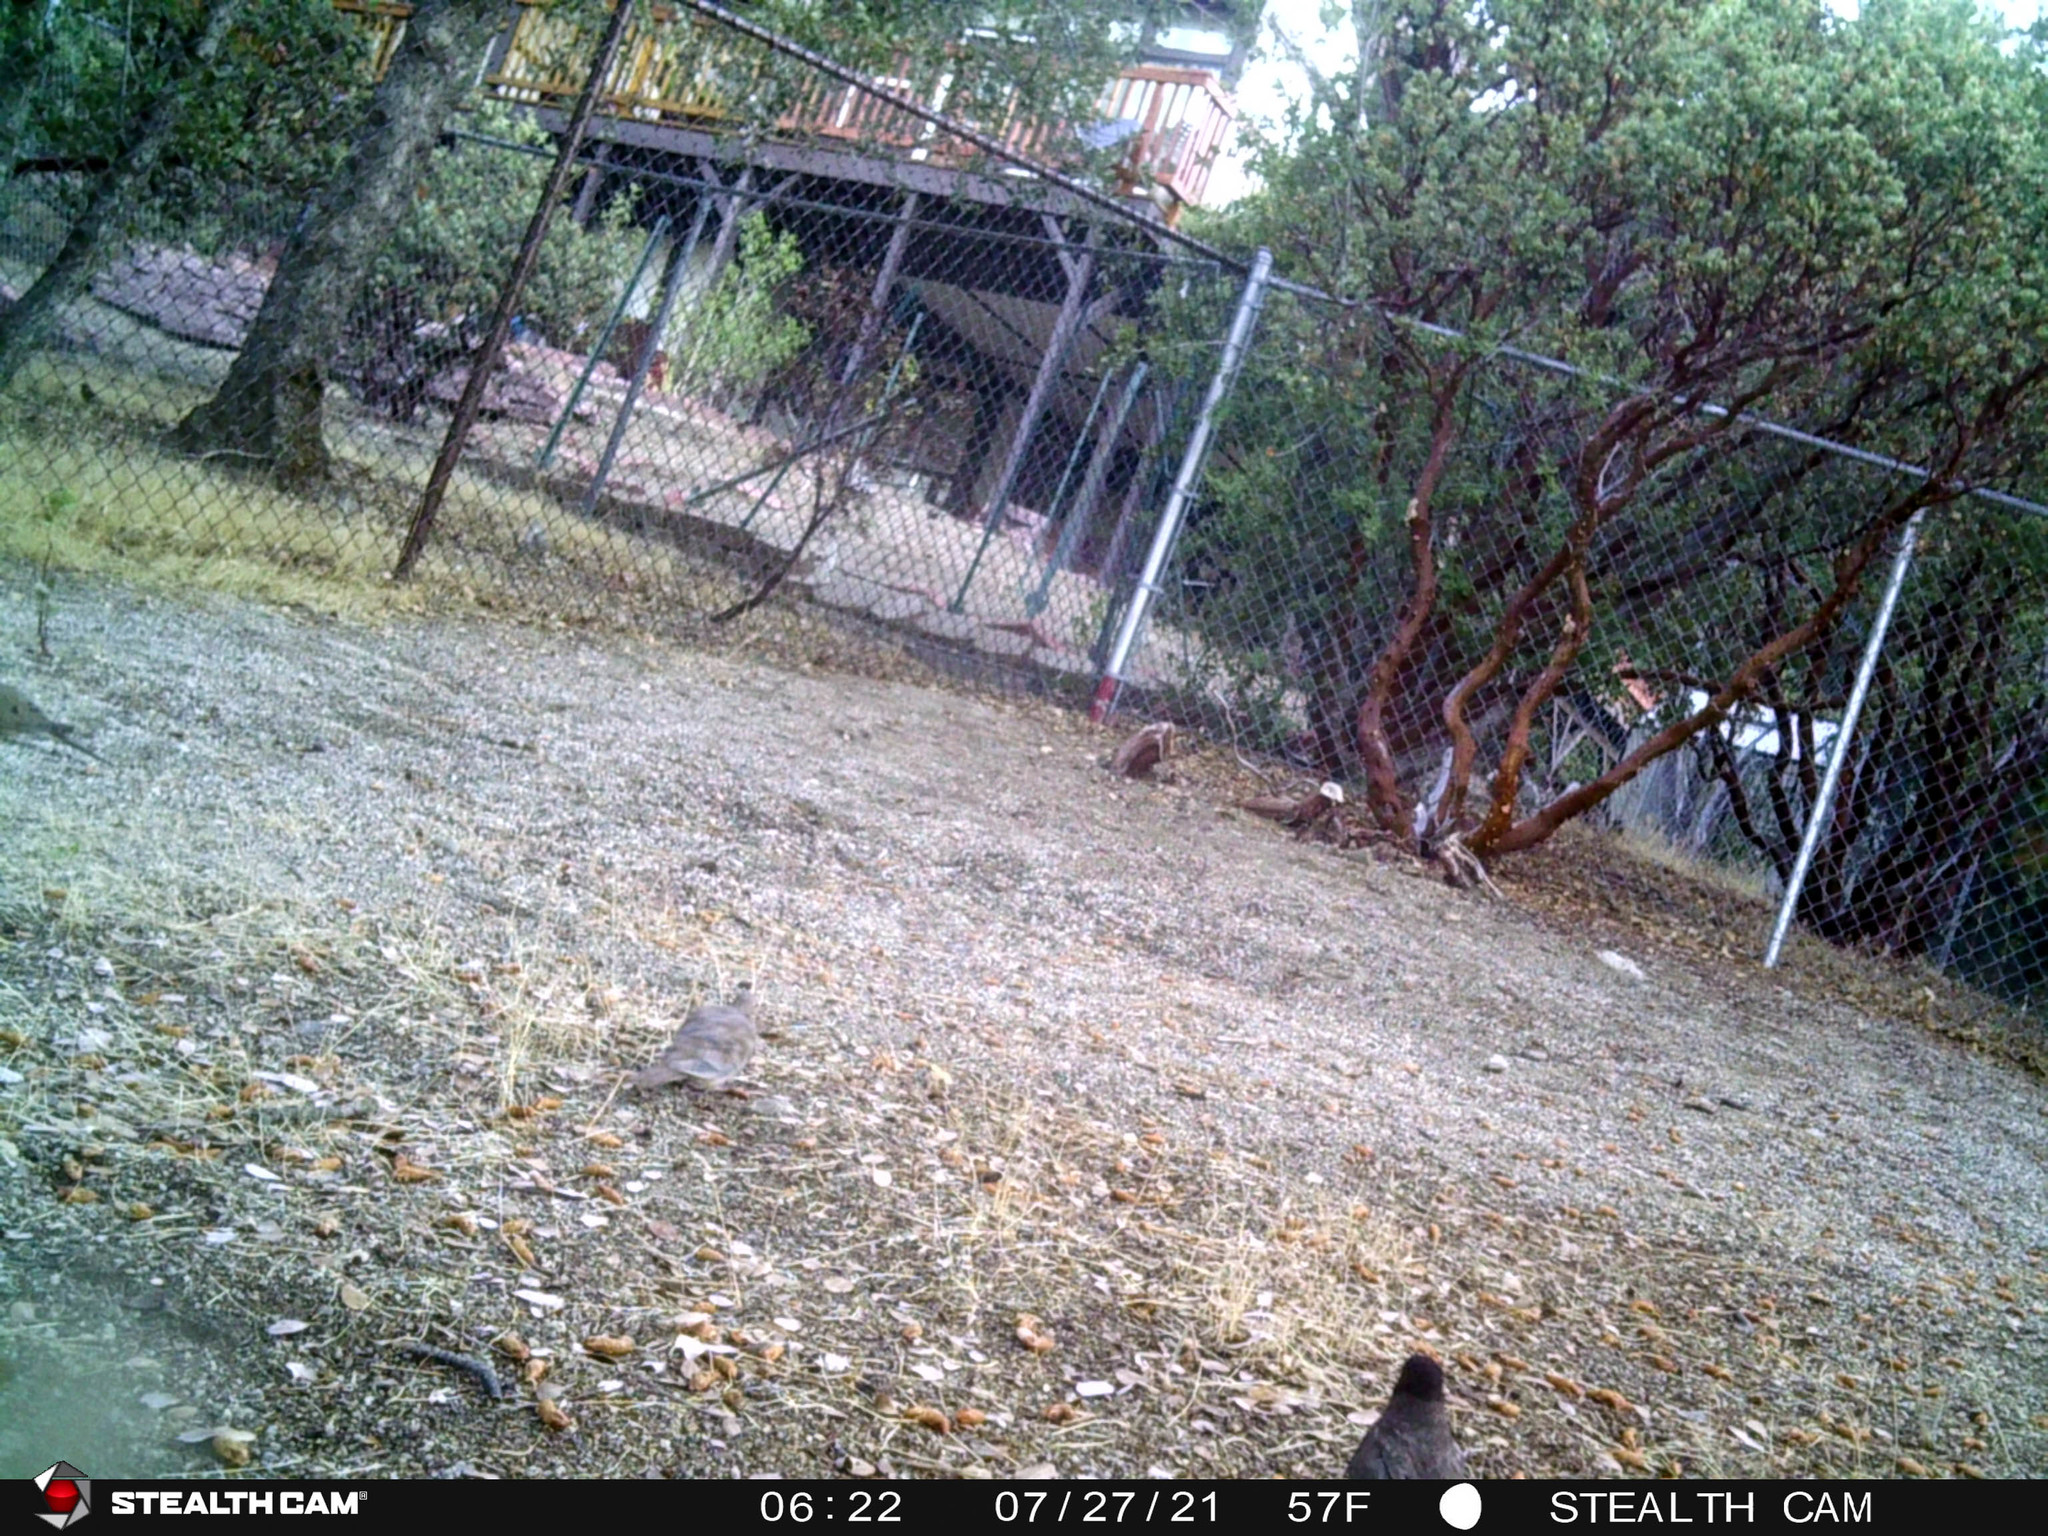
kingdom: Animalia
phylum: Chordata
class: Aves
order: Passeriformes
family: Turdidae
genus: Turdus
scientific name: Turdus migratorius
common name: American robin
